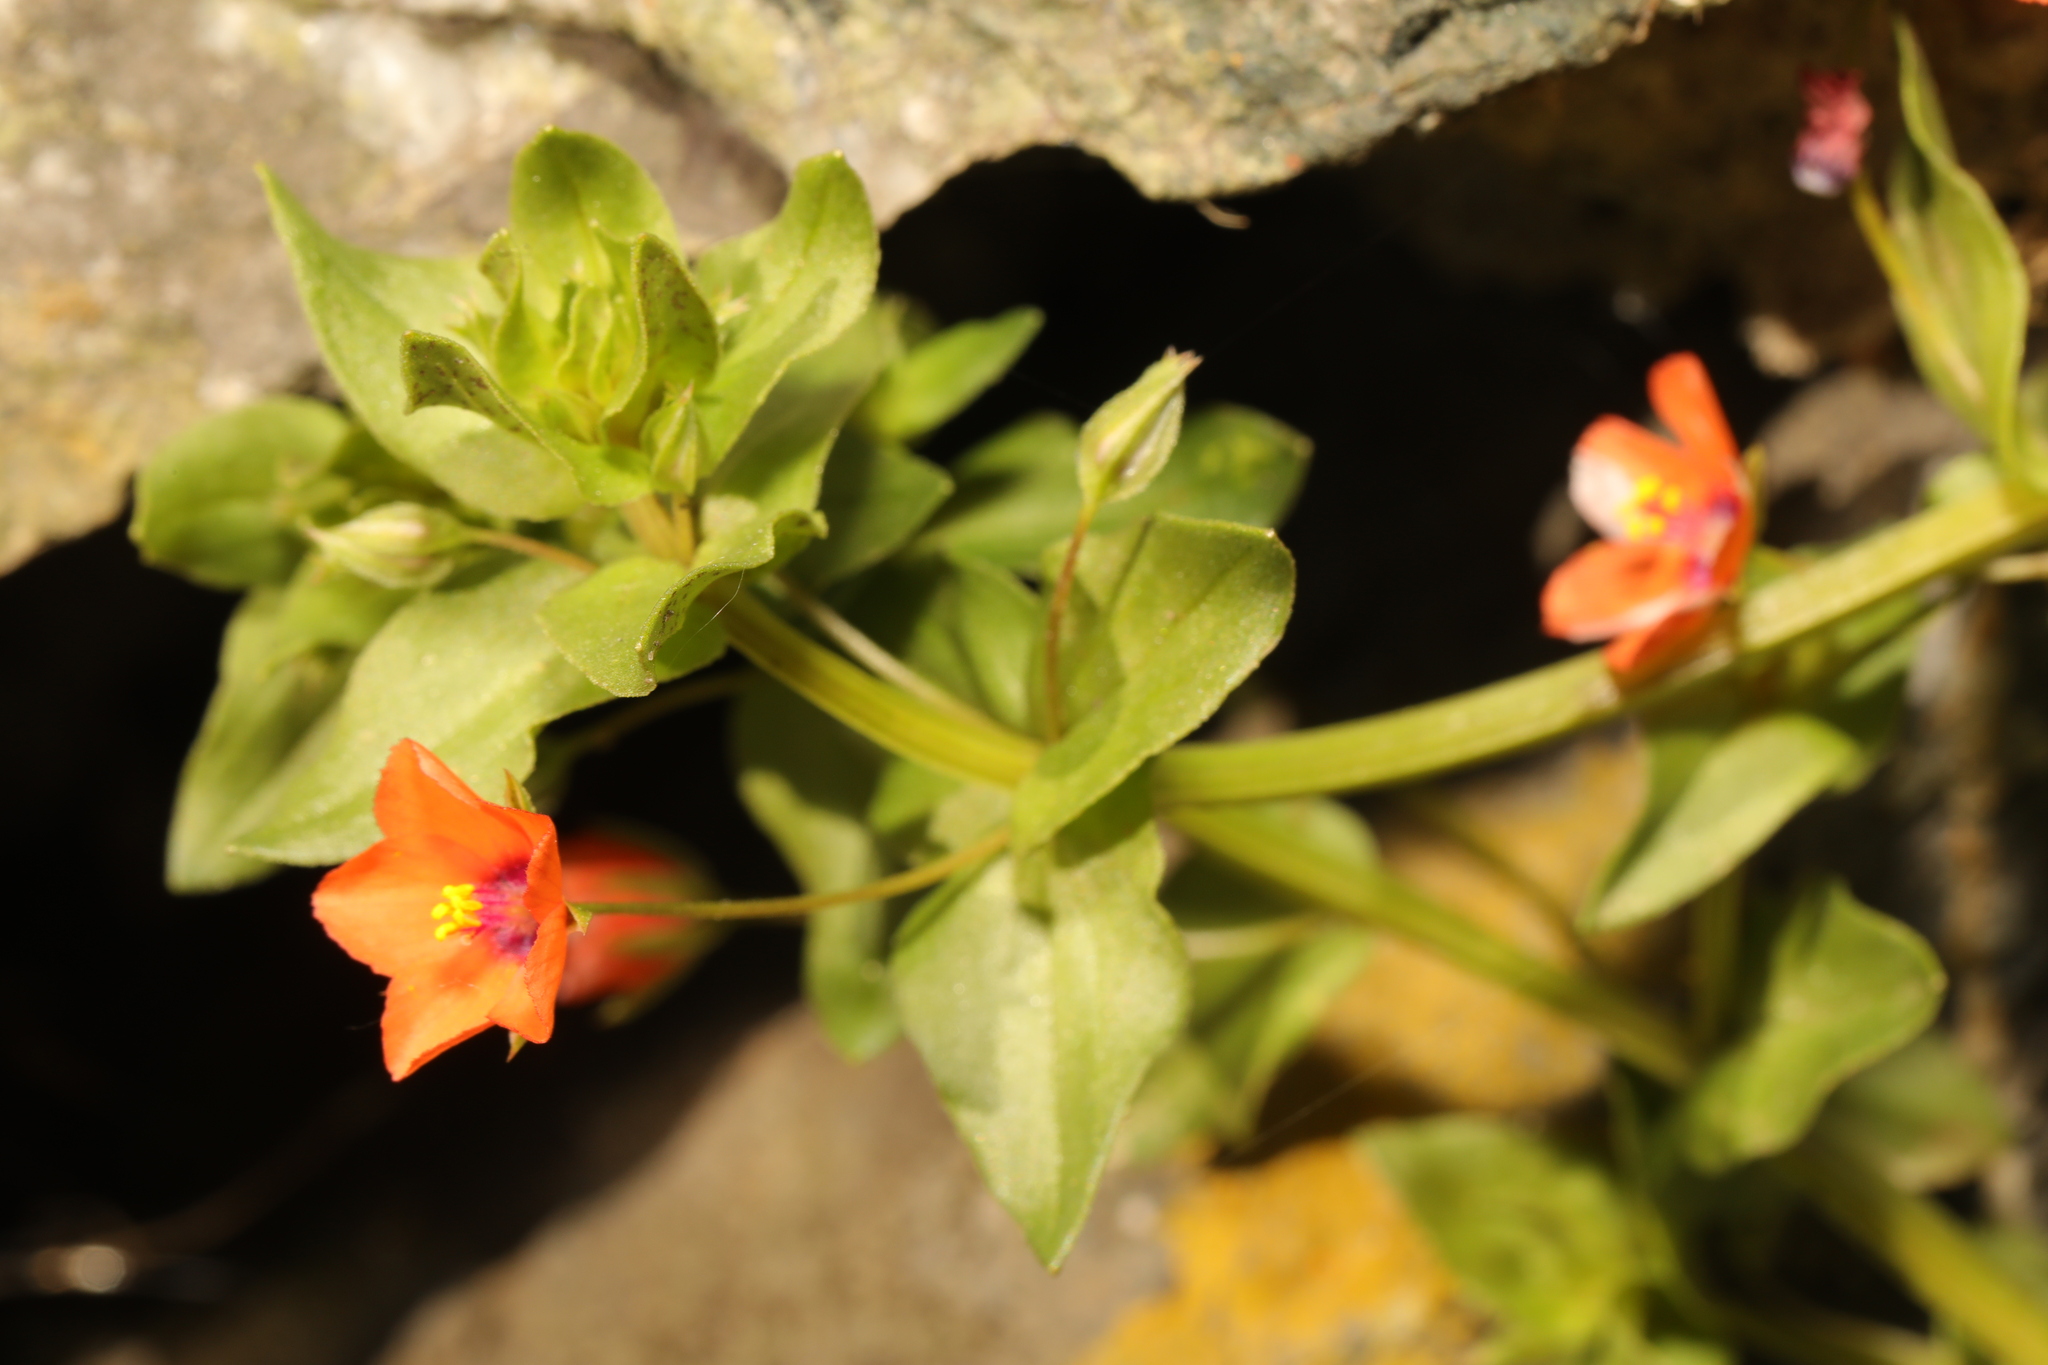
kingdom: Plantae
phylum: Tracheophyta
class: Magnoliopsida
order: Ericales
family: Primulaceae
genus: Lysimachia
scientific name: Lysimachia arvensis
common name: Scarlet pimpernel
